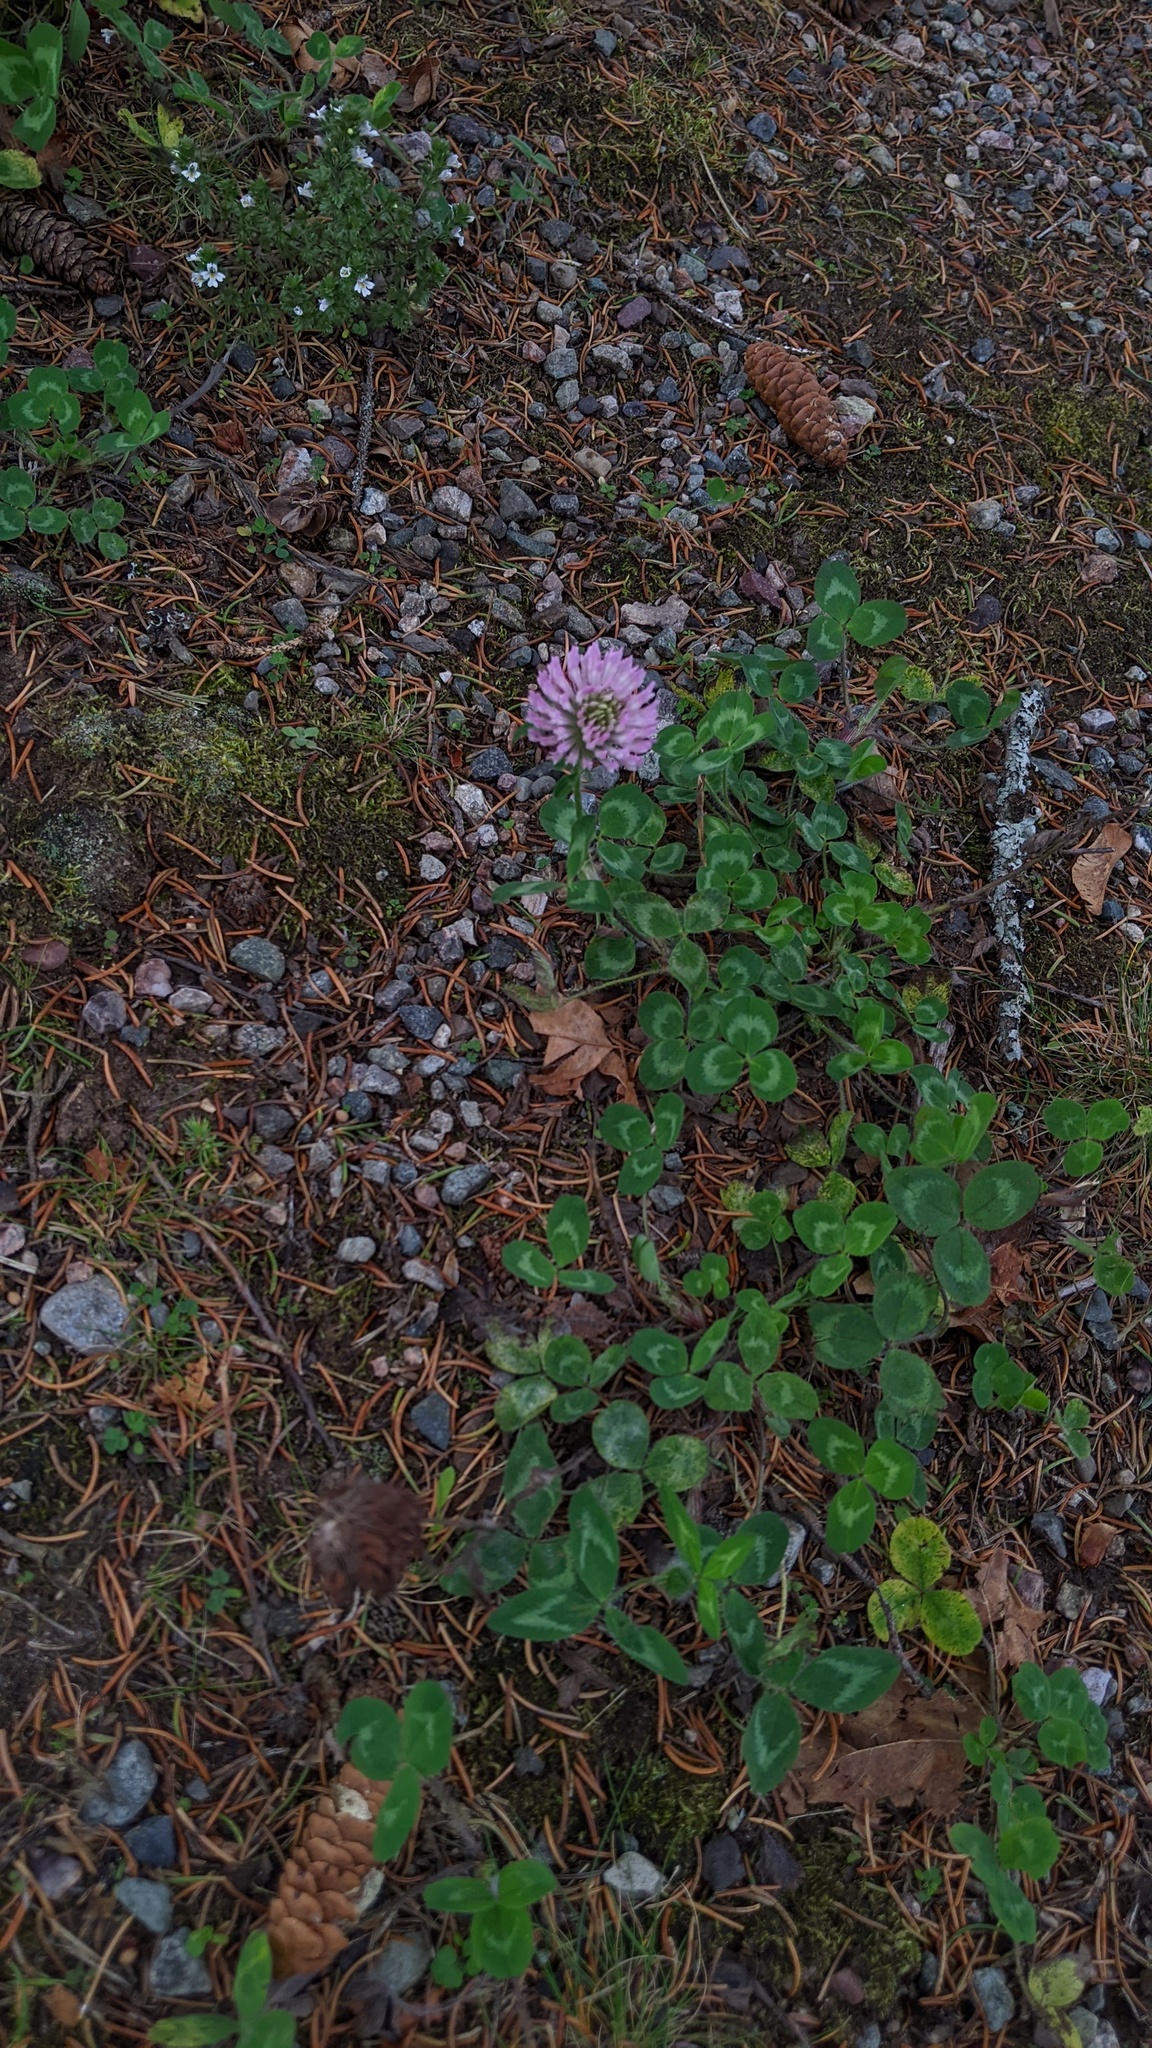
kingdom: Plantae
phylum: Tracheophyta
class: Magnoliopsida
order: Fabales
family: Fabaceae
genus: Trifolium
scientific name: Trifolium pratense
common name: Red clover
